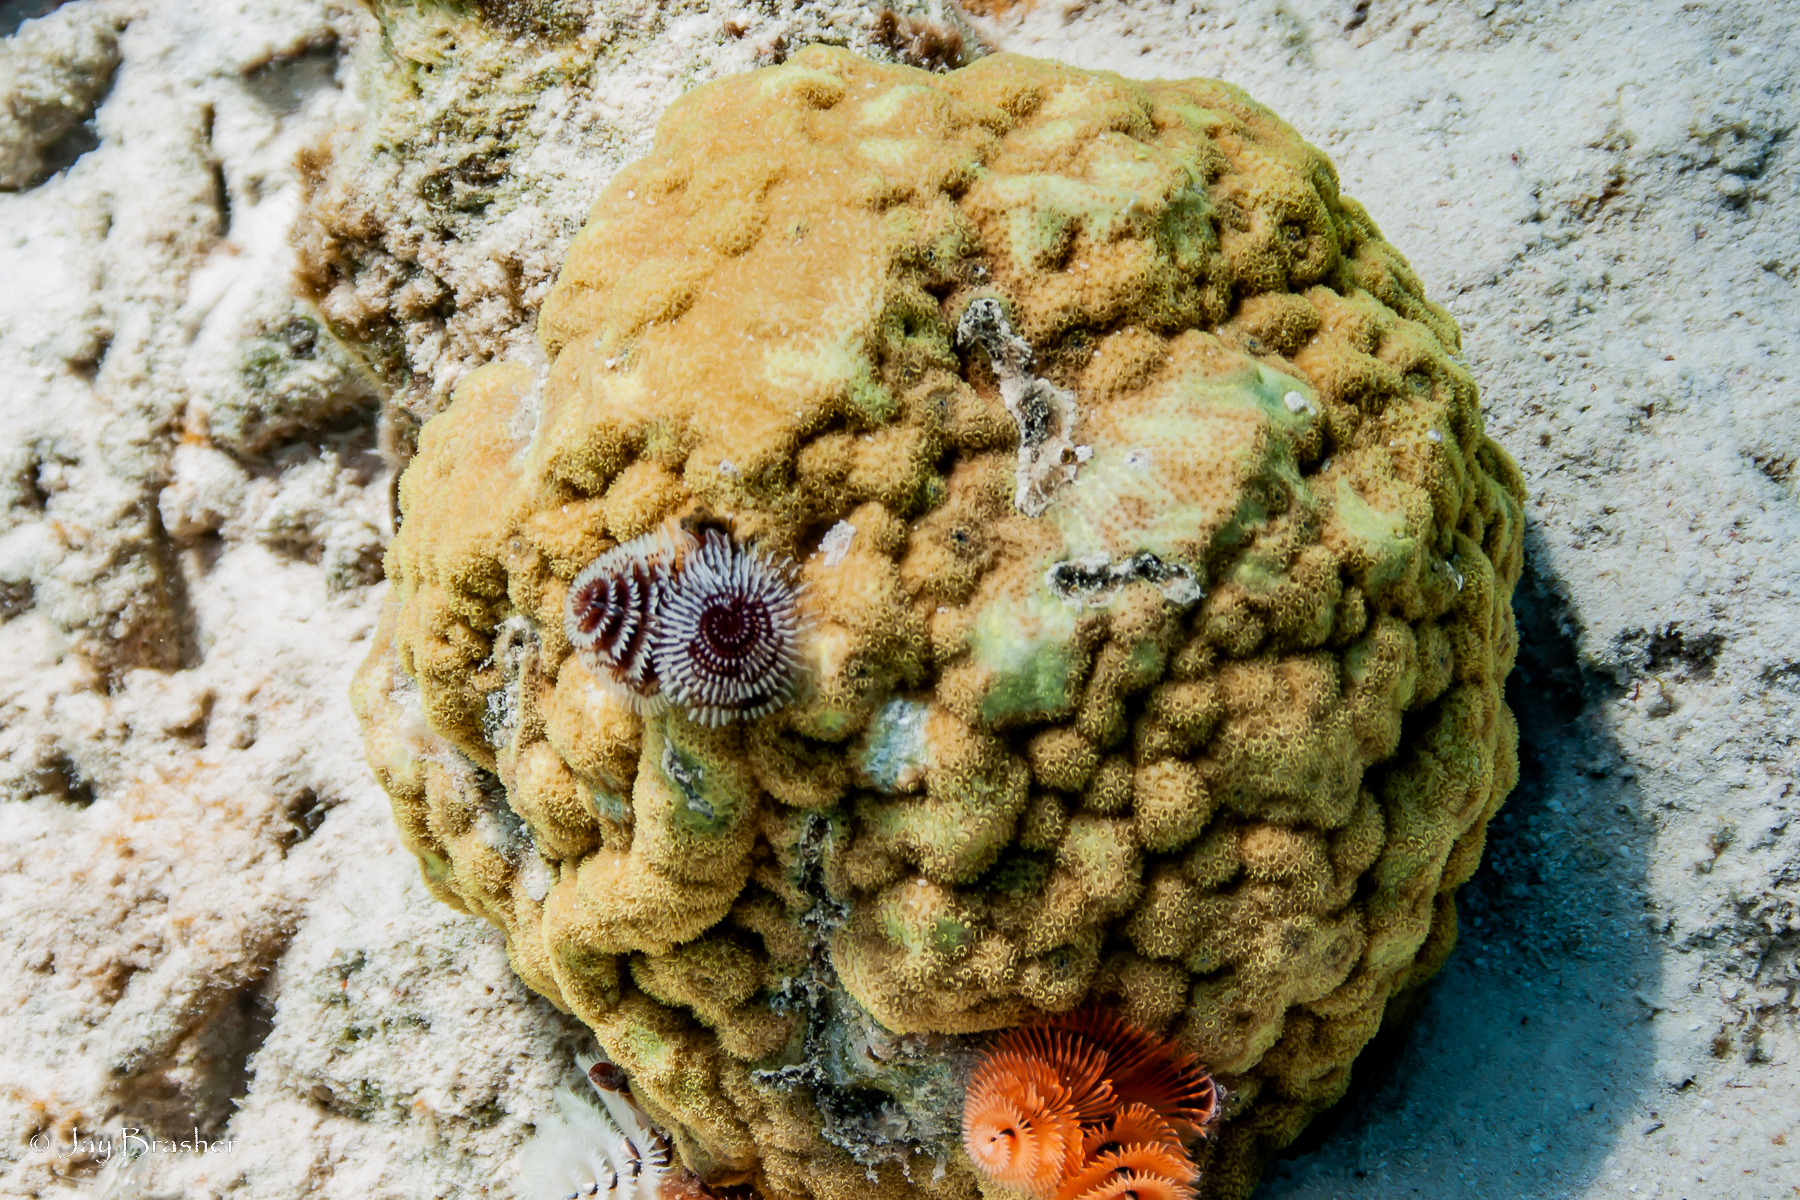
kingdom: Animalia
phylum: Cnidaria
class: Anthozoa
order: Scleractinia
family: Poritidae
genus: Porites
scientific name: Porites astreoides
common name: Mustard hill coral
